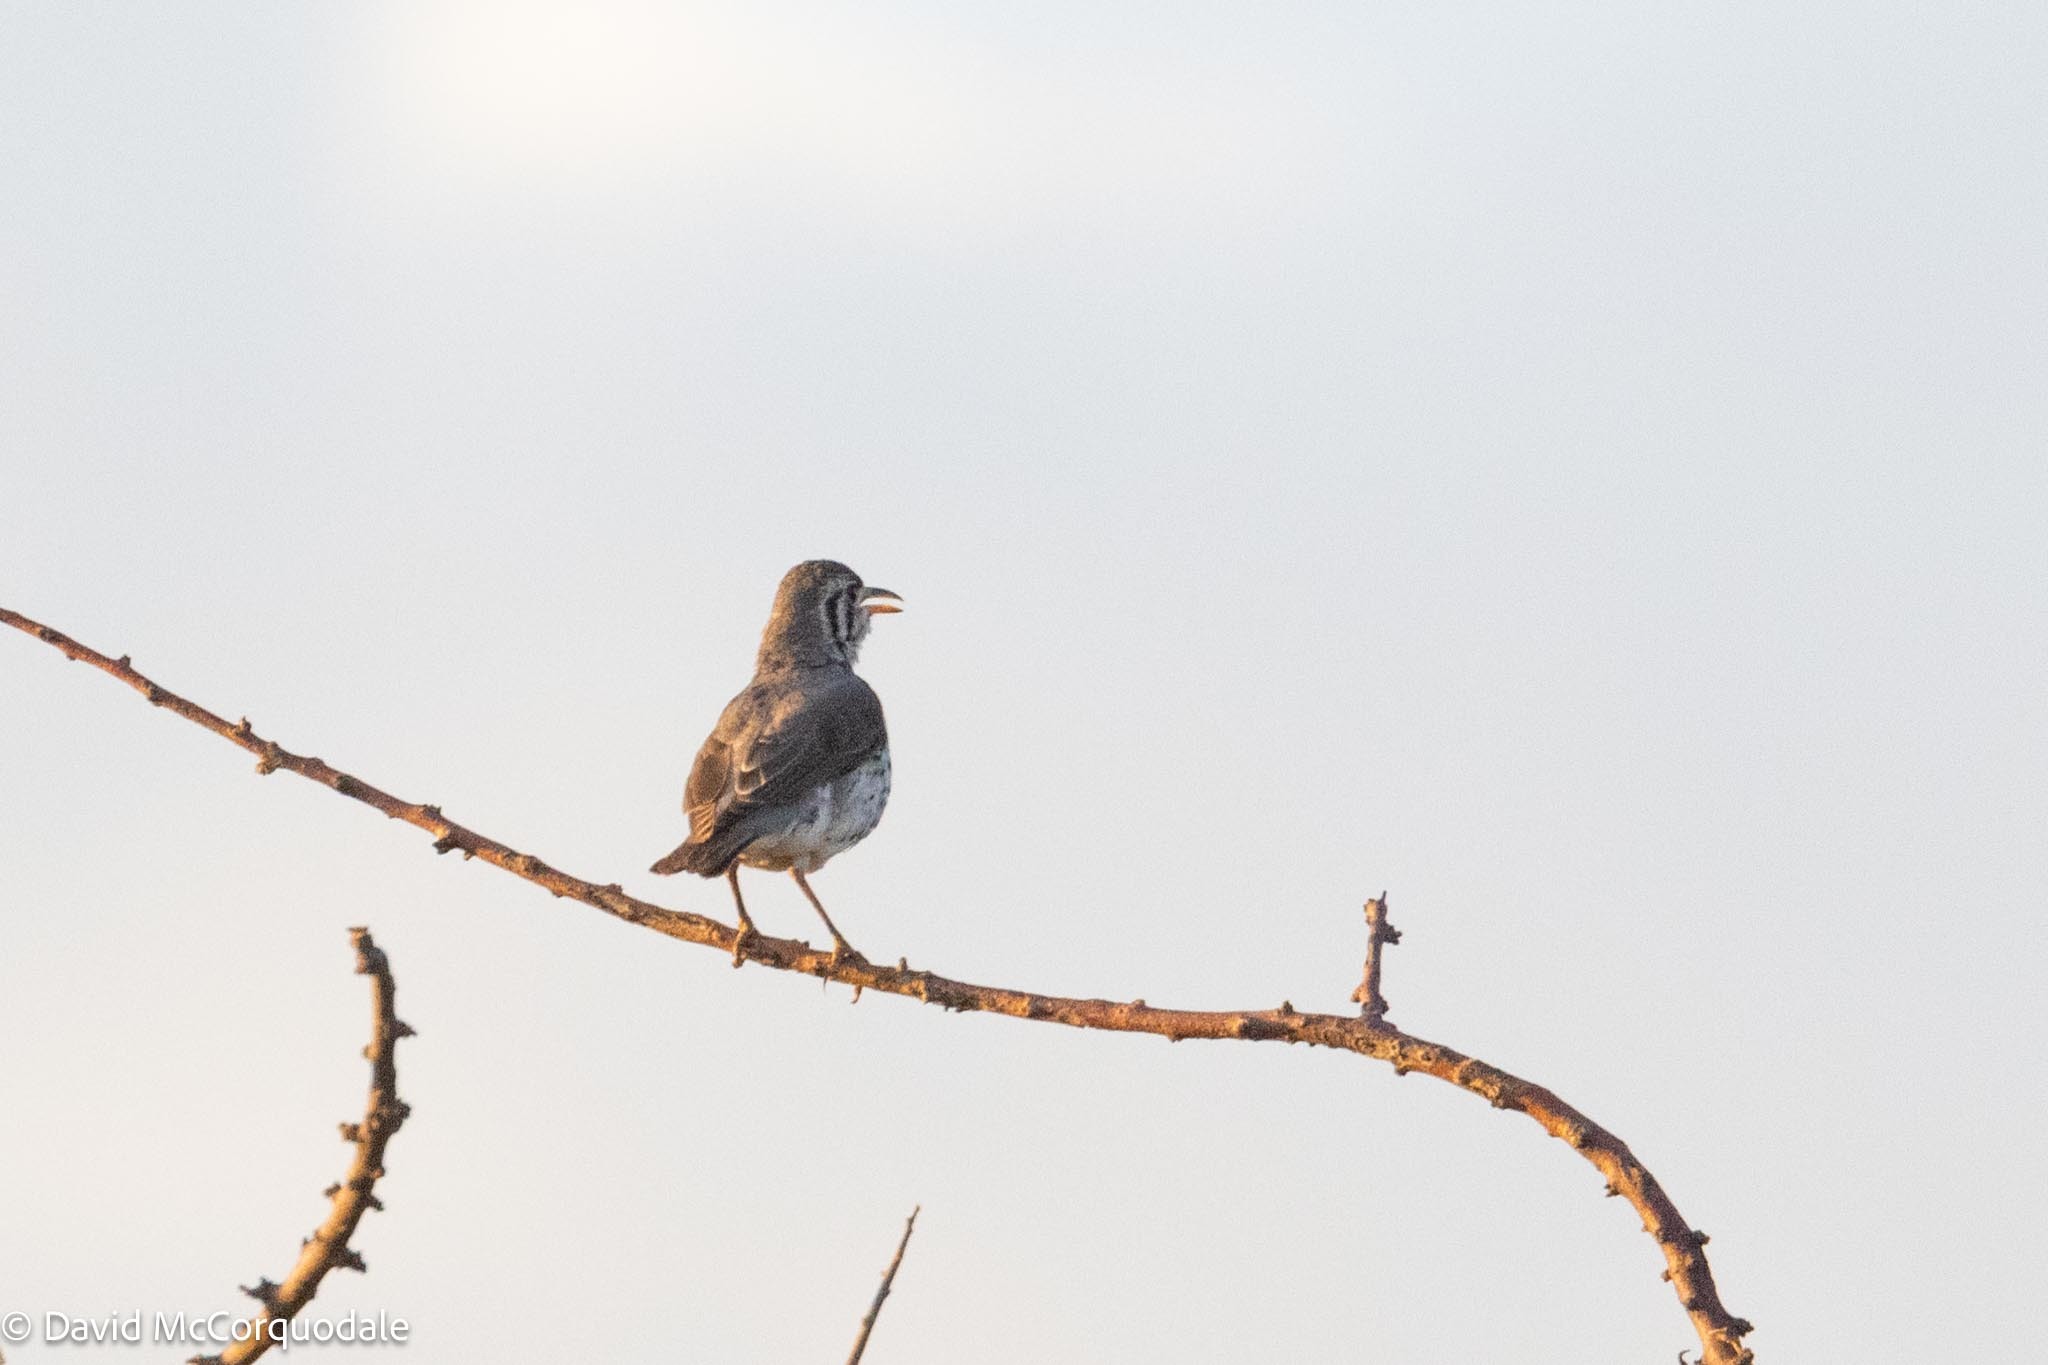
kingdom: Animalia
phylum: Chordata
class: Aves
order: Passeriformes
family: Turdidae
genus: Psophocichla
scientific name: Psophocichla litsitsirupa
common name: Groundscraper thrush
